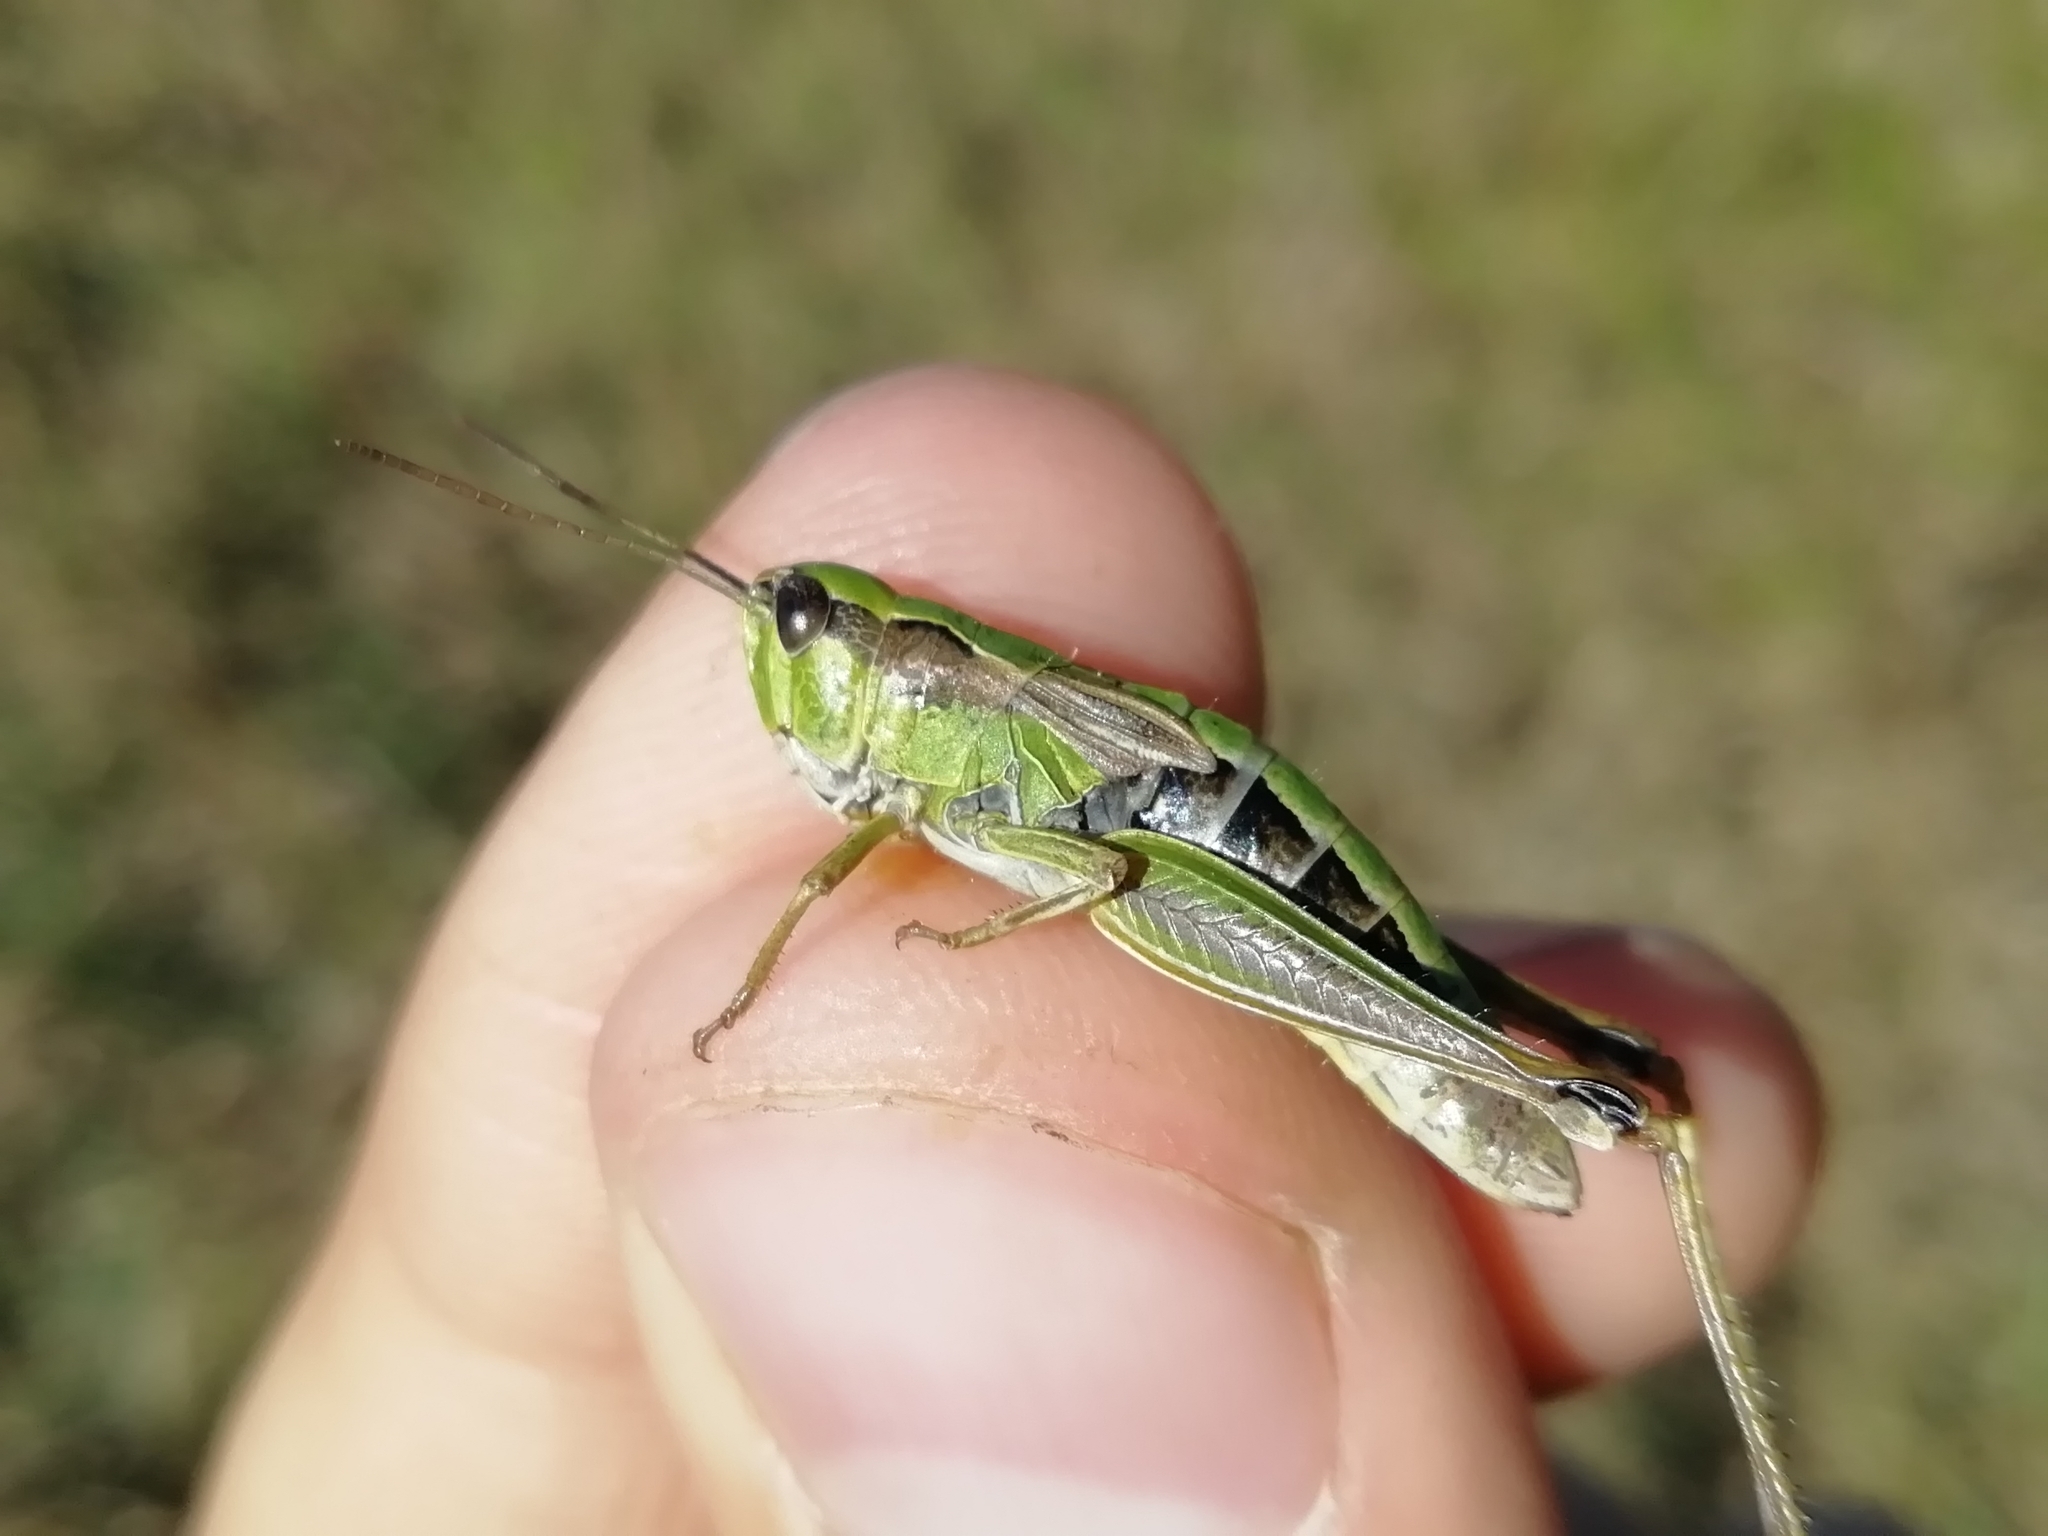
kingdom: Animalia
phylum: Arthropoda
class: Insecta
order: Orthoptera
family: Acrididae
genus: Chorthippus
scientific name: Chorthippus fallax
